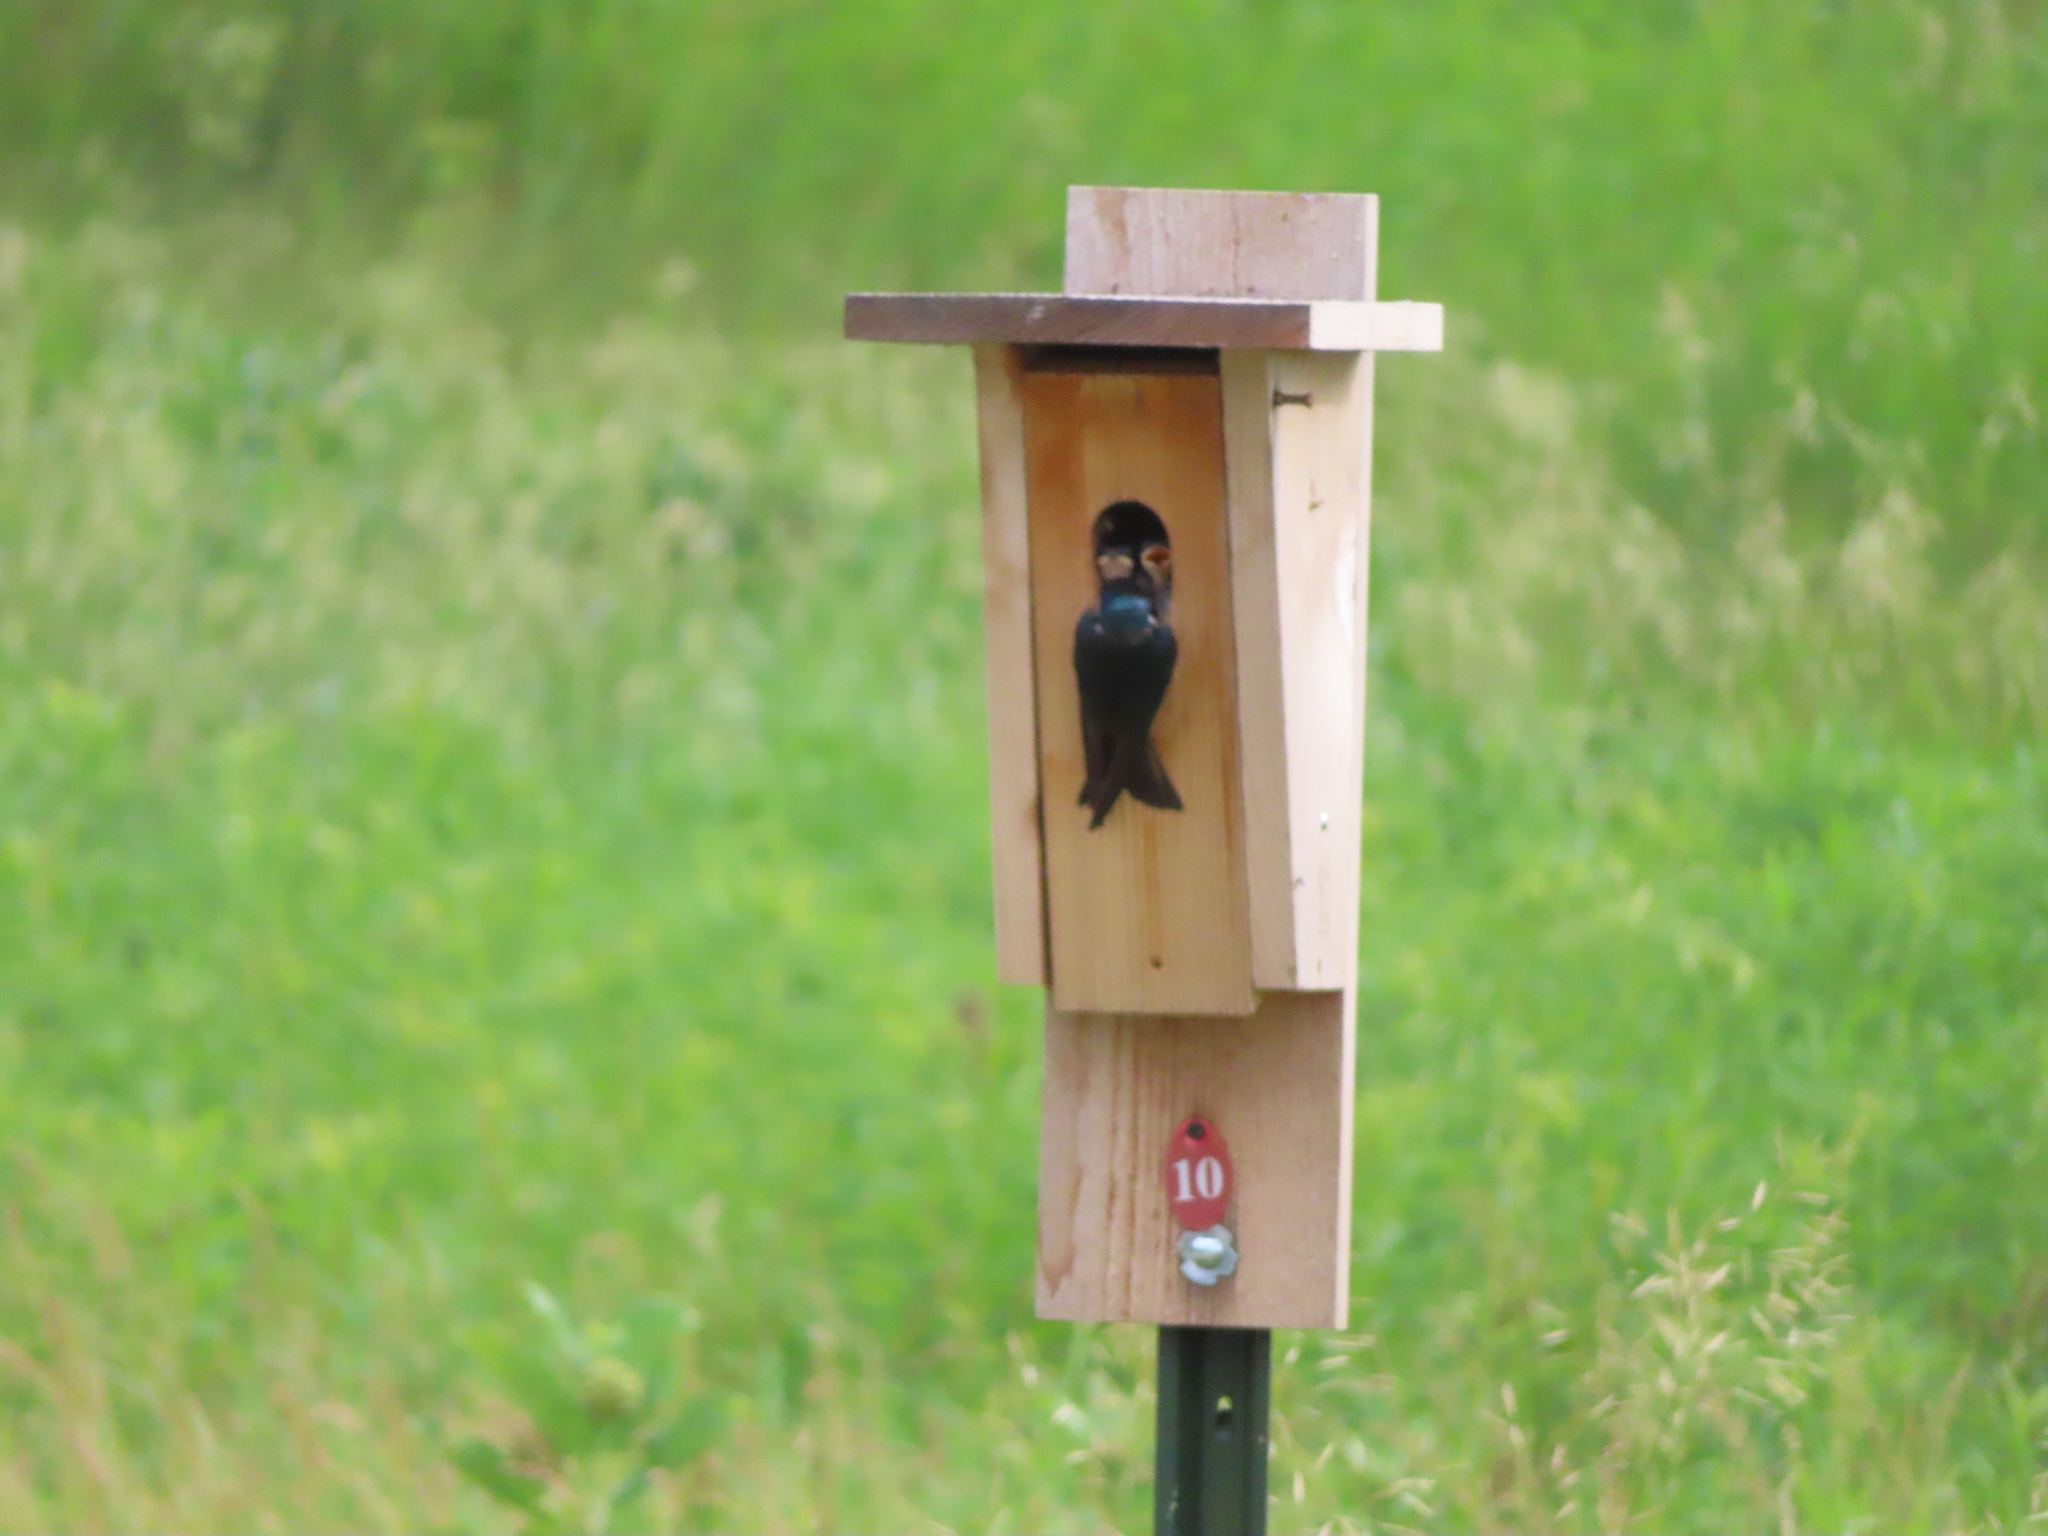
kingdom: Animalia
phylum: Chordata
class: Aves
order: Passeriformes
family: Hirundinidae
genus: Tachycineta
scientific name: Tachycineta bicolor
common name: Tree swallow
